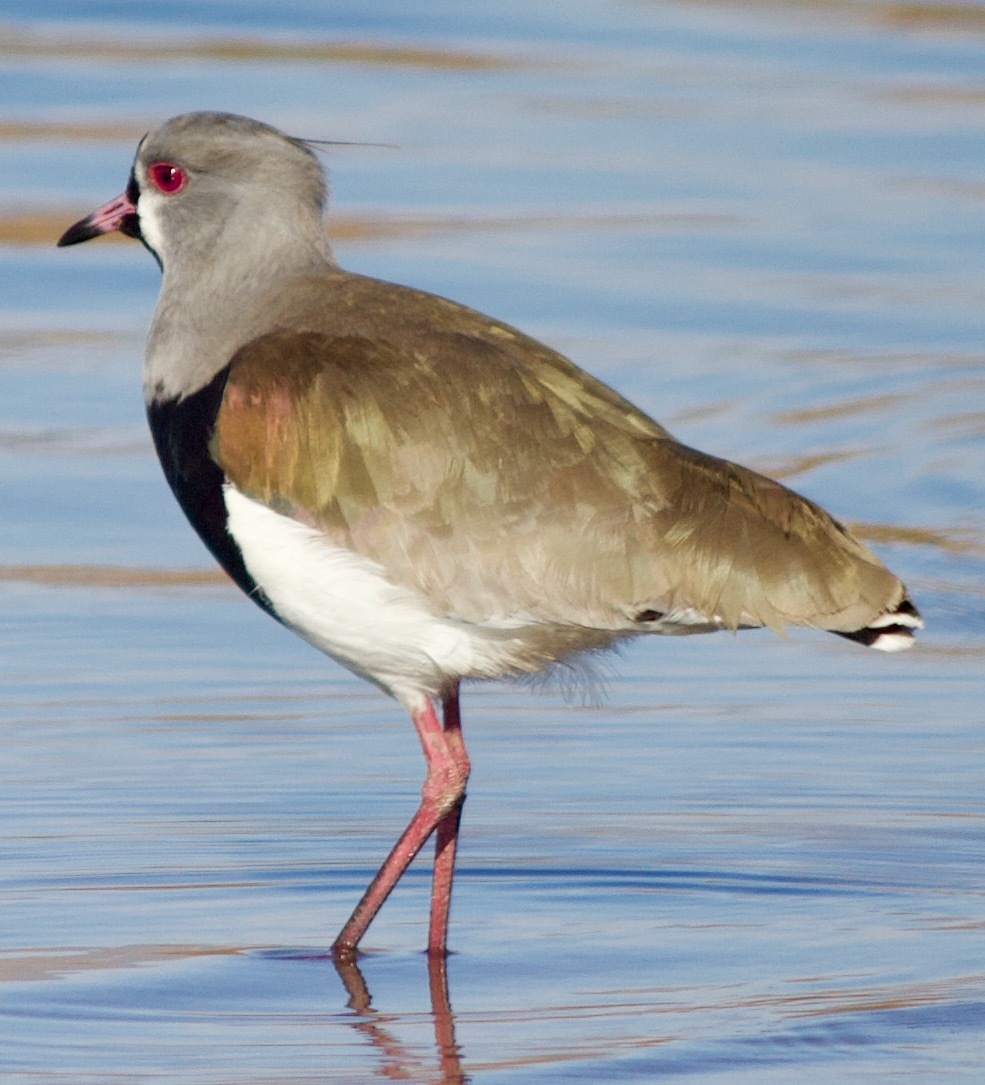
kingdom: Animalia
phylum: Chordata
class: Aves
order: Charadriiformes
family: Charadriidae
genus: Vanellus
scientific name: Vanellus chilensis
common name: Southern lapwing
